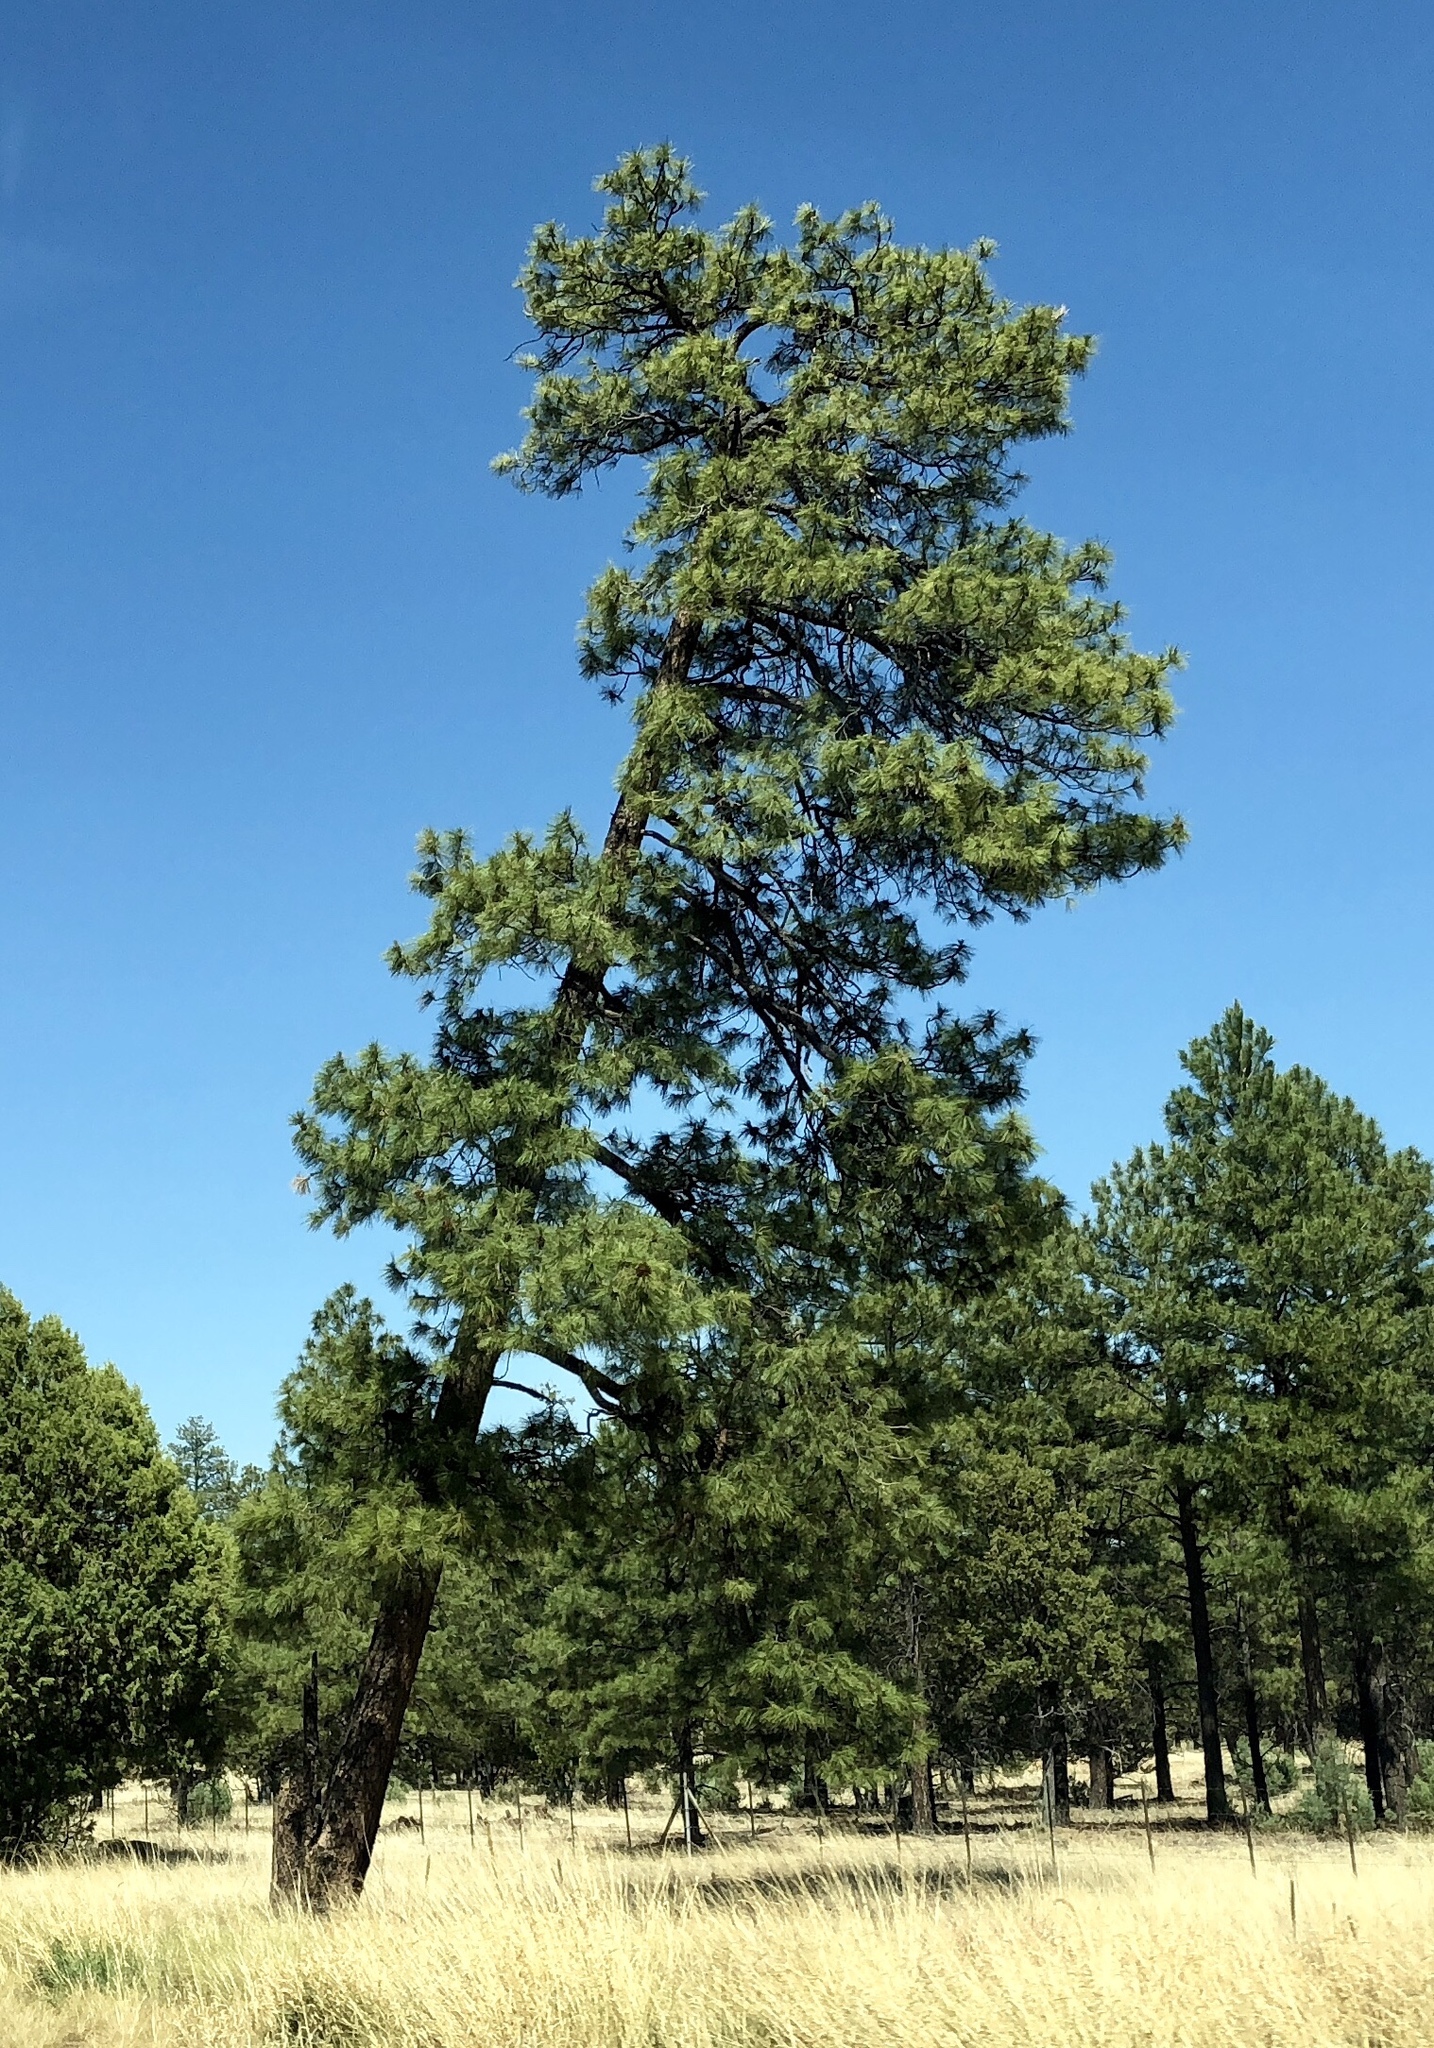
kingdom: Plantae
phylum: Tracheophyta
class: Pinopsida
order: Pinales
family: Pinaceae
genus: Pinus
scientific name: Pinus ponderosa
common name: Western yellow-pine
